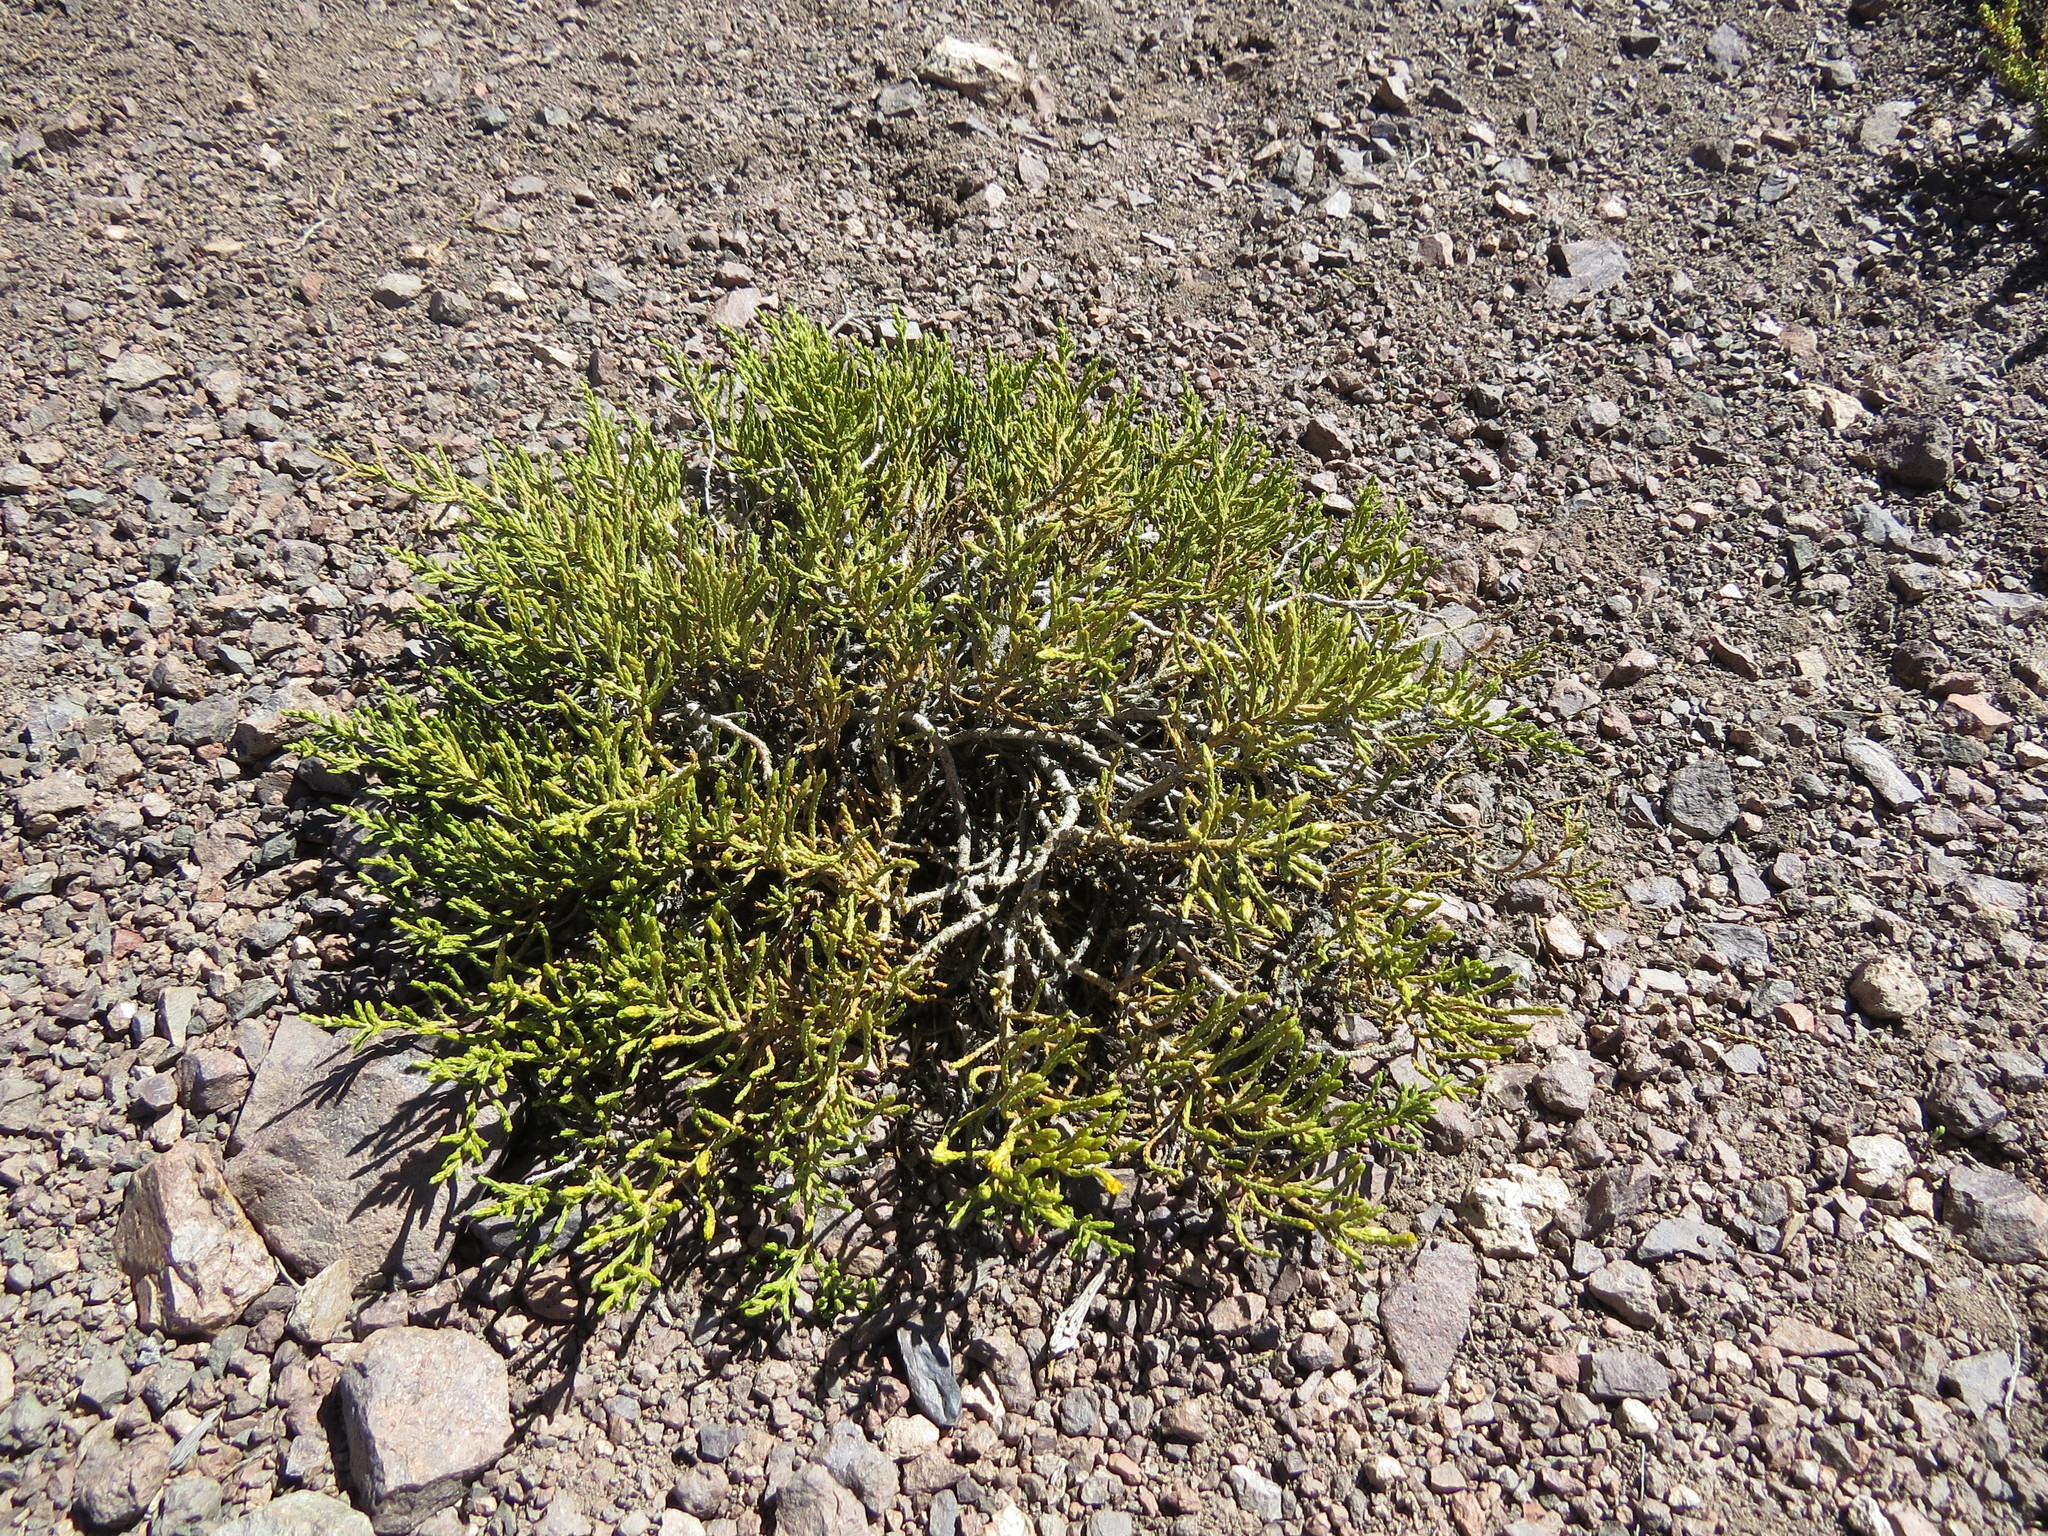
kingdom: Plantae
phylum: Tracheophyta
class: Magnoliopsida
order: Asterales
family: Asteraceae
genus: Parastrephia
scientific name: Parastrephia quadrangularis
